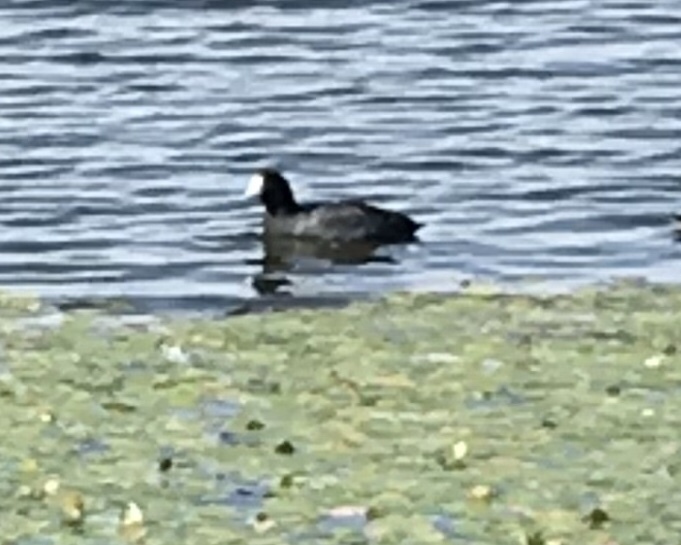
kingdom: Animalia
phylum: Chordata
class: Aves
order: Gruiformes
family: Rallidae
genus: Fulica
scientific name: Fulica americana
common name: American coot
